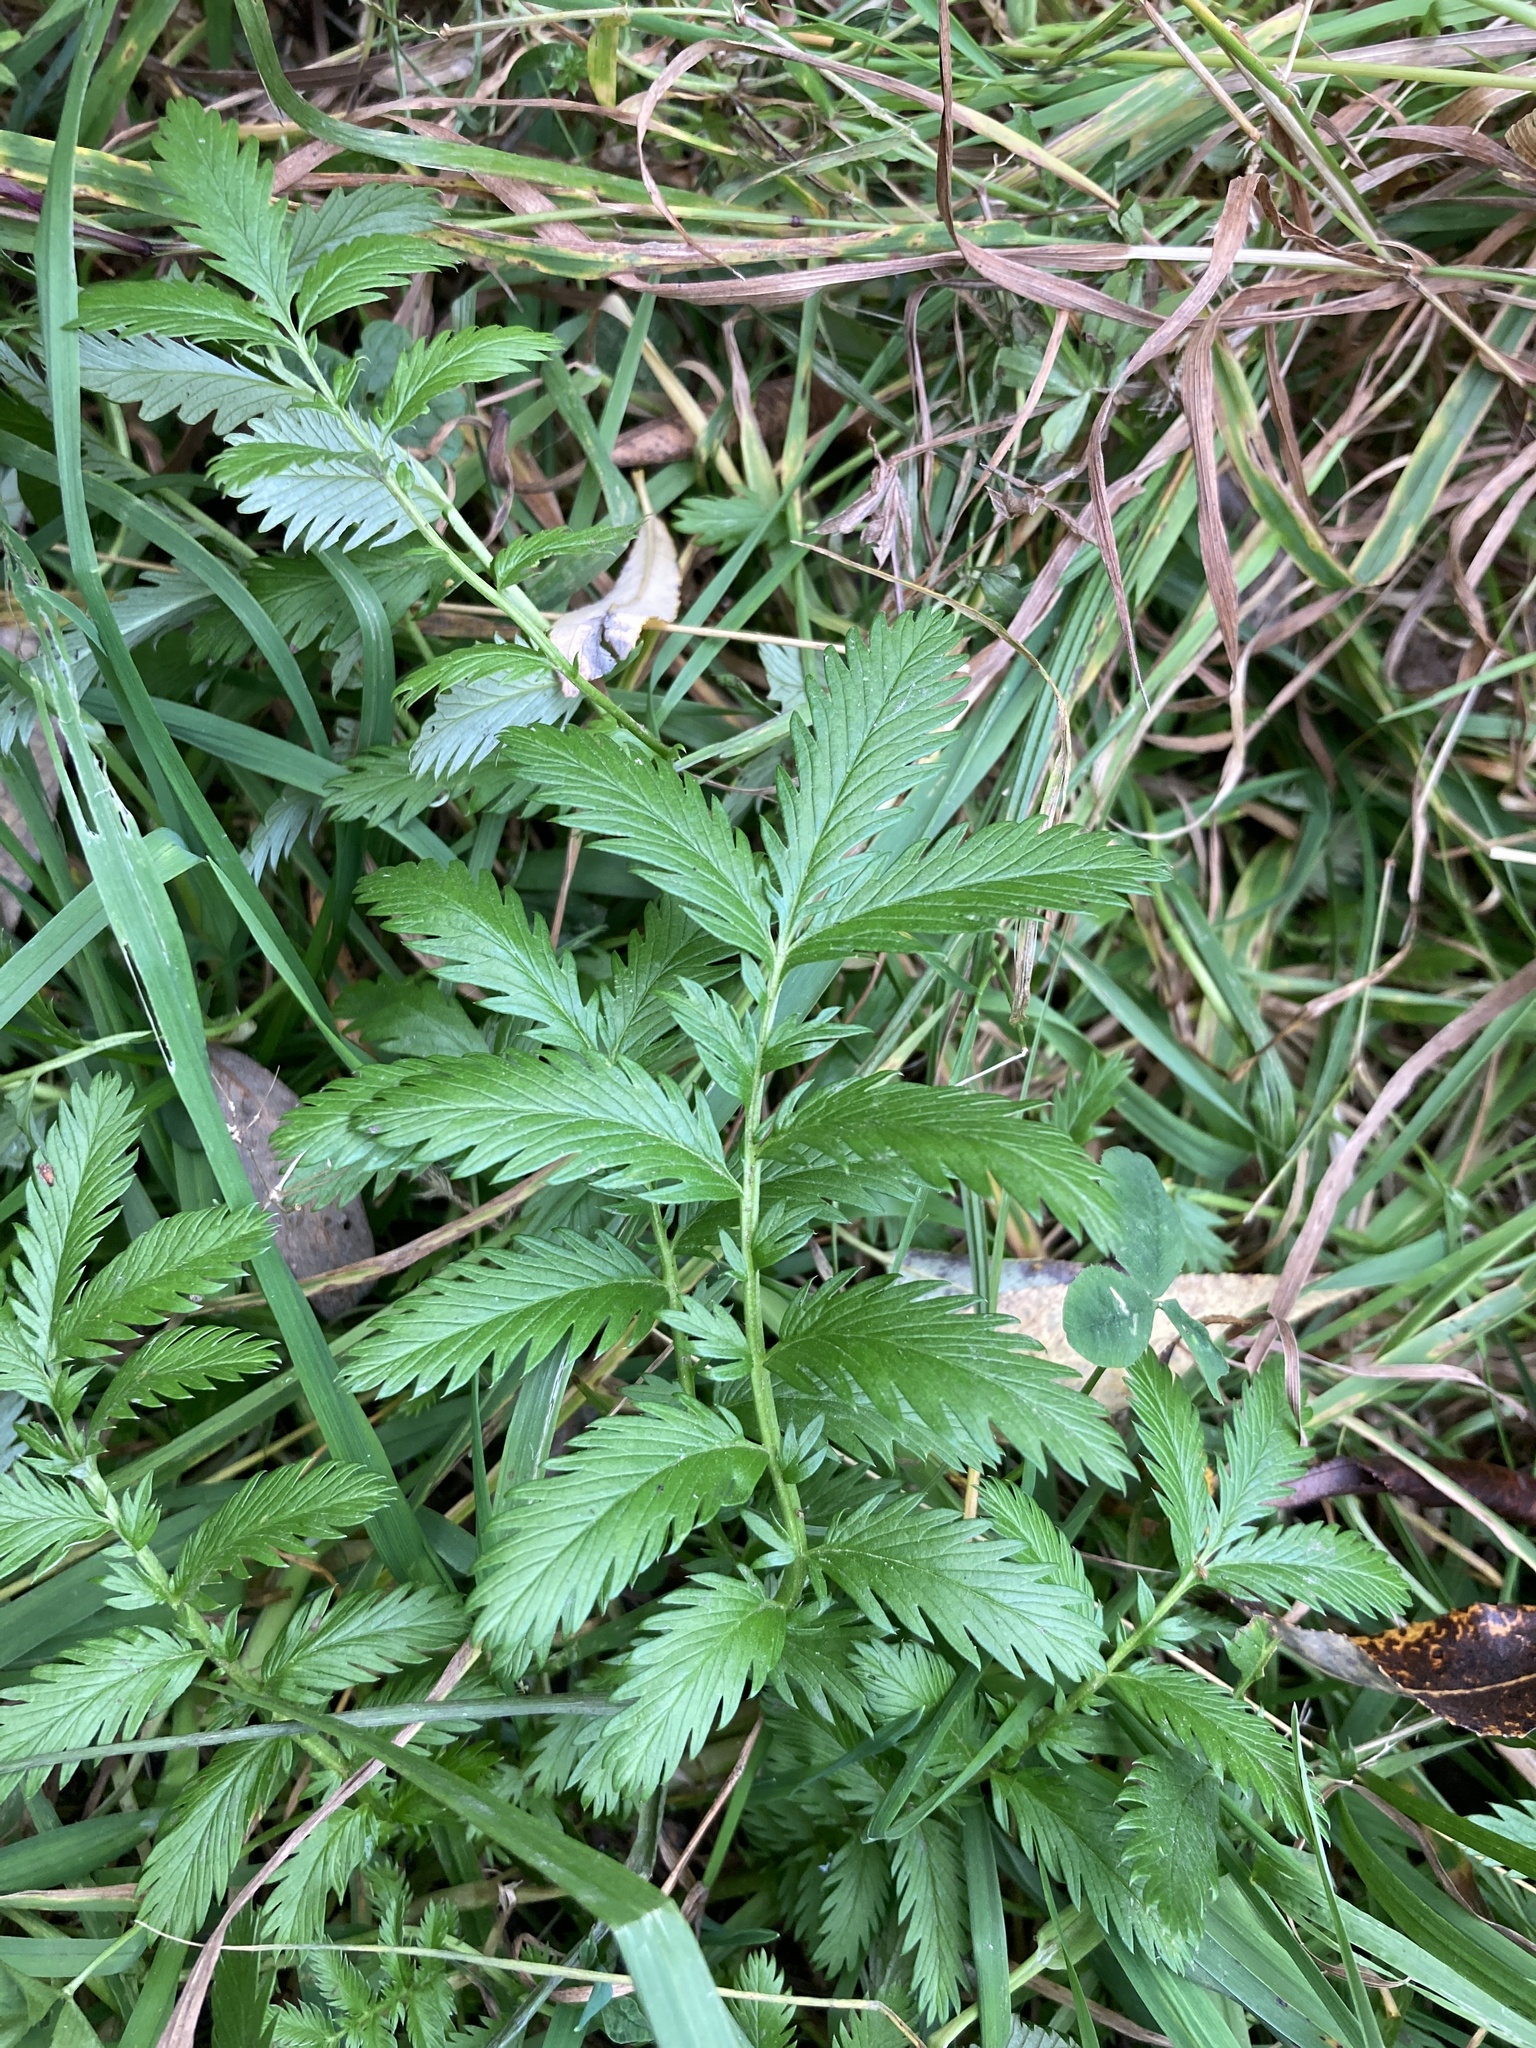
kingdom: Plantae
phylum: Tracheophyta
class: Magnoliopsida
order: Rosales
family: Rosaceae
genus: Argentina
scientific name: Argentina anserina
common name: Common silverweed
